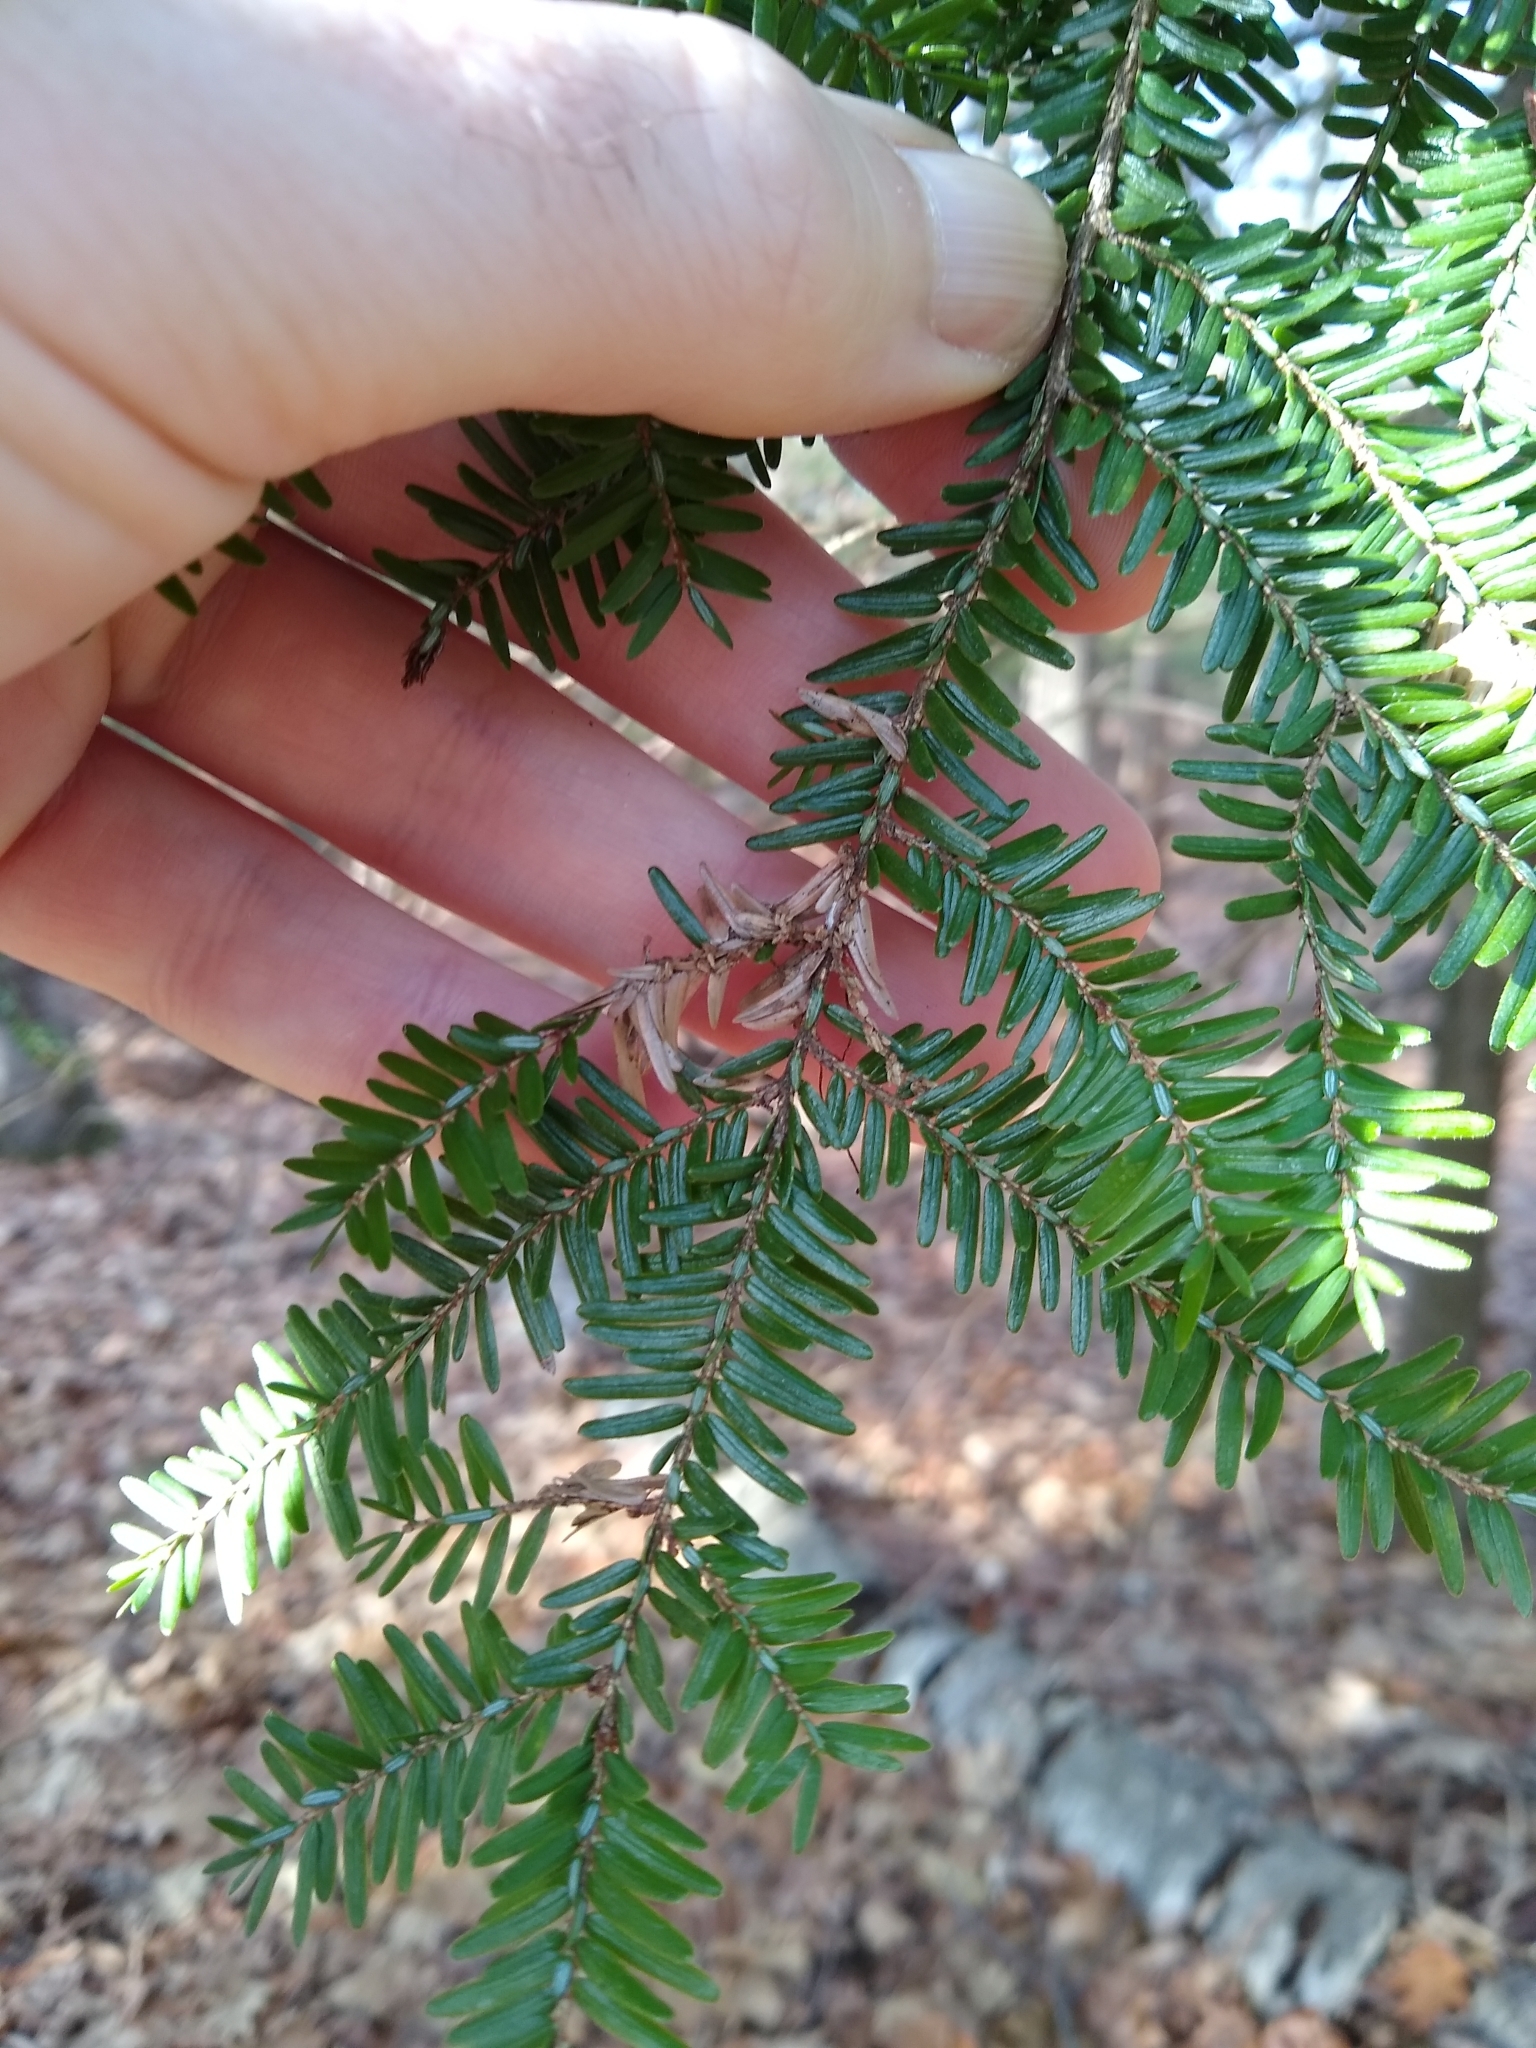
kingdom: Plantae
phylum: Tracheophyta
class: Pinopsida
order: Pinales
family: Pinaceae
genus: Tsuga
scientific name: Tsuga canadensis
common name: Eastern hemlock
